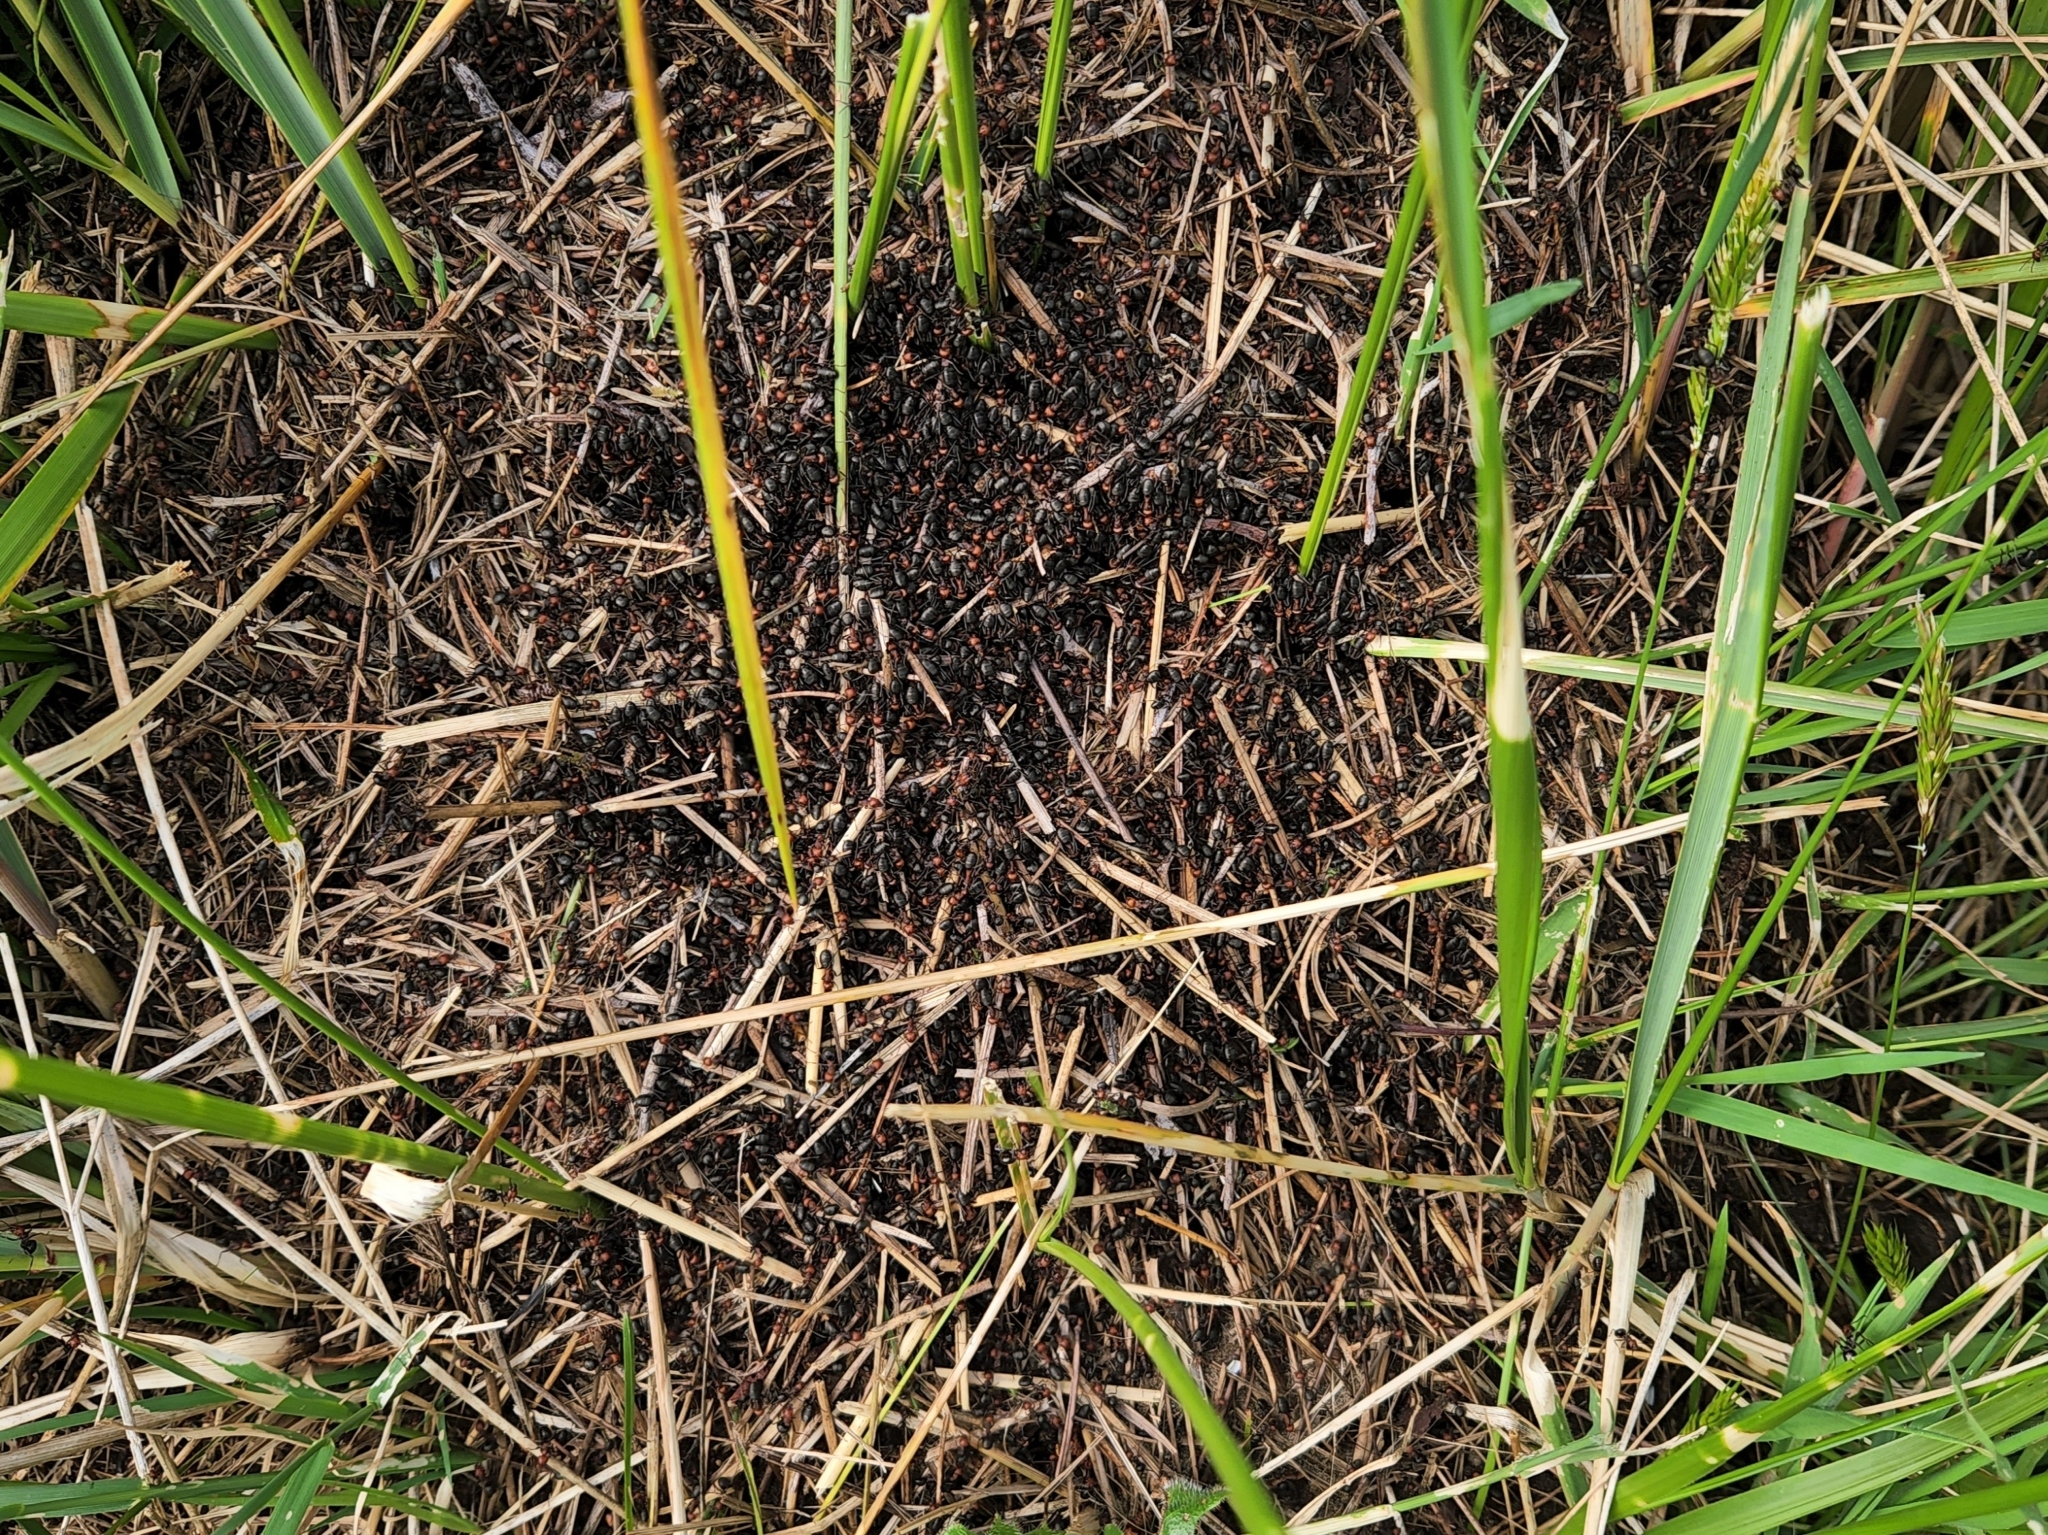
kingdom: Animalia
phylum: Arthropoda
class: Insecta
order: Hymenoptera
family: Formicidae
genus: Formica
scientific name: Formica obscuripes
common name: Western thatching ant
